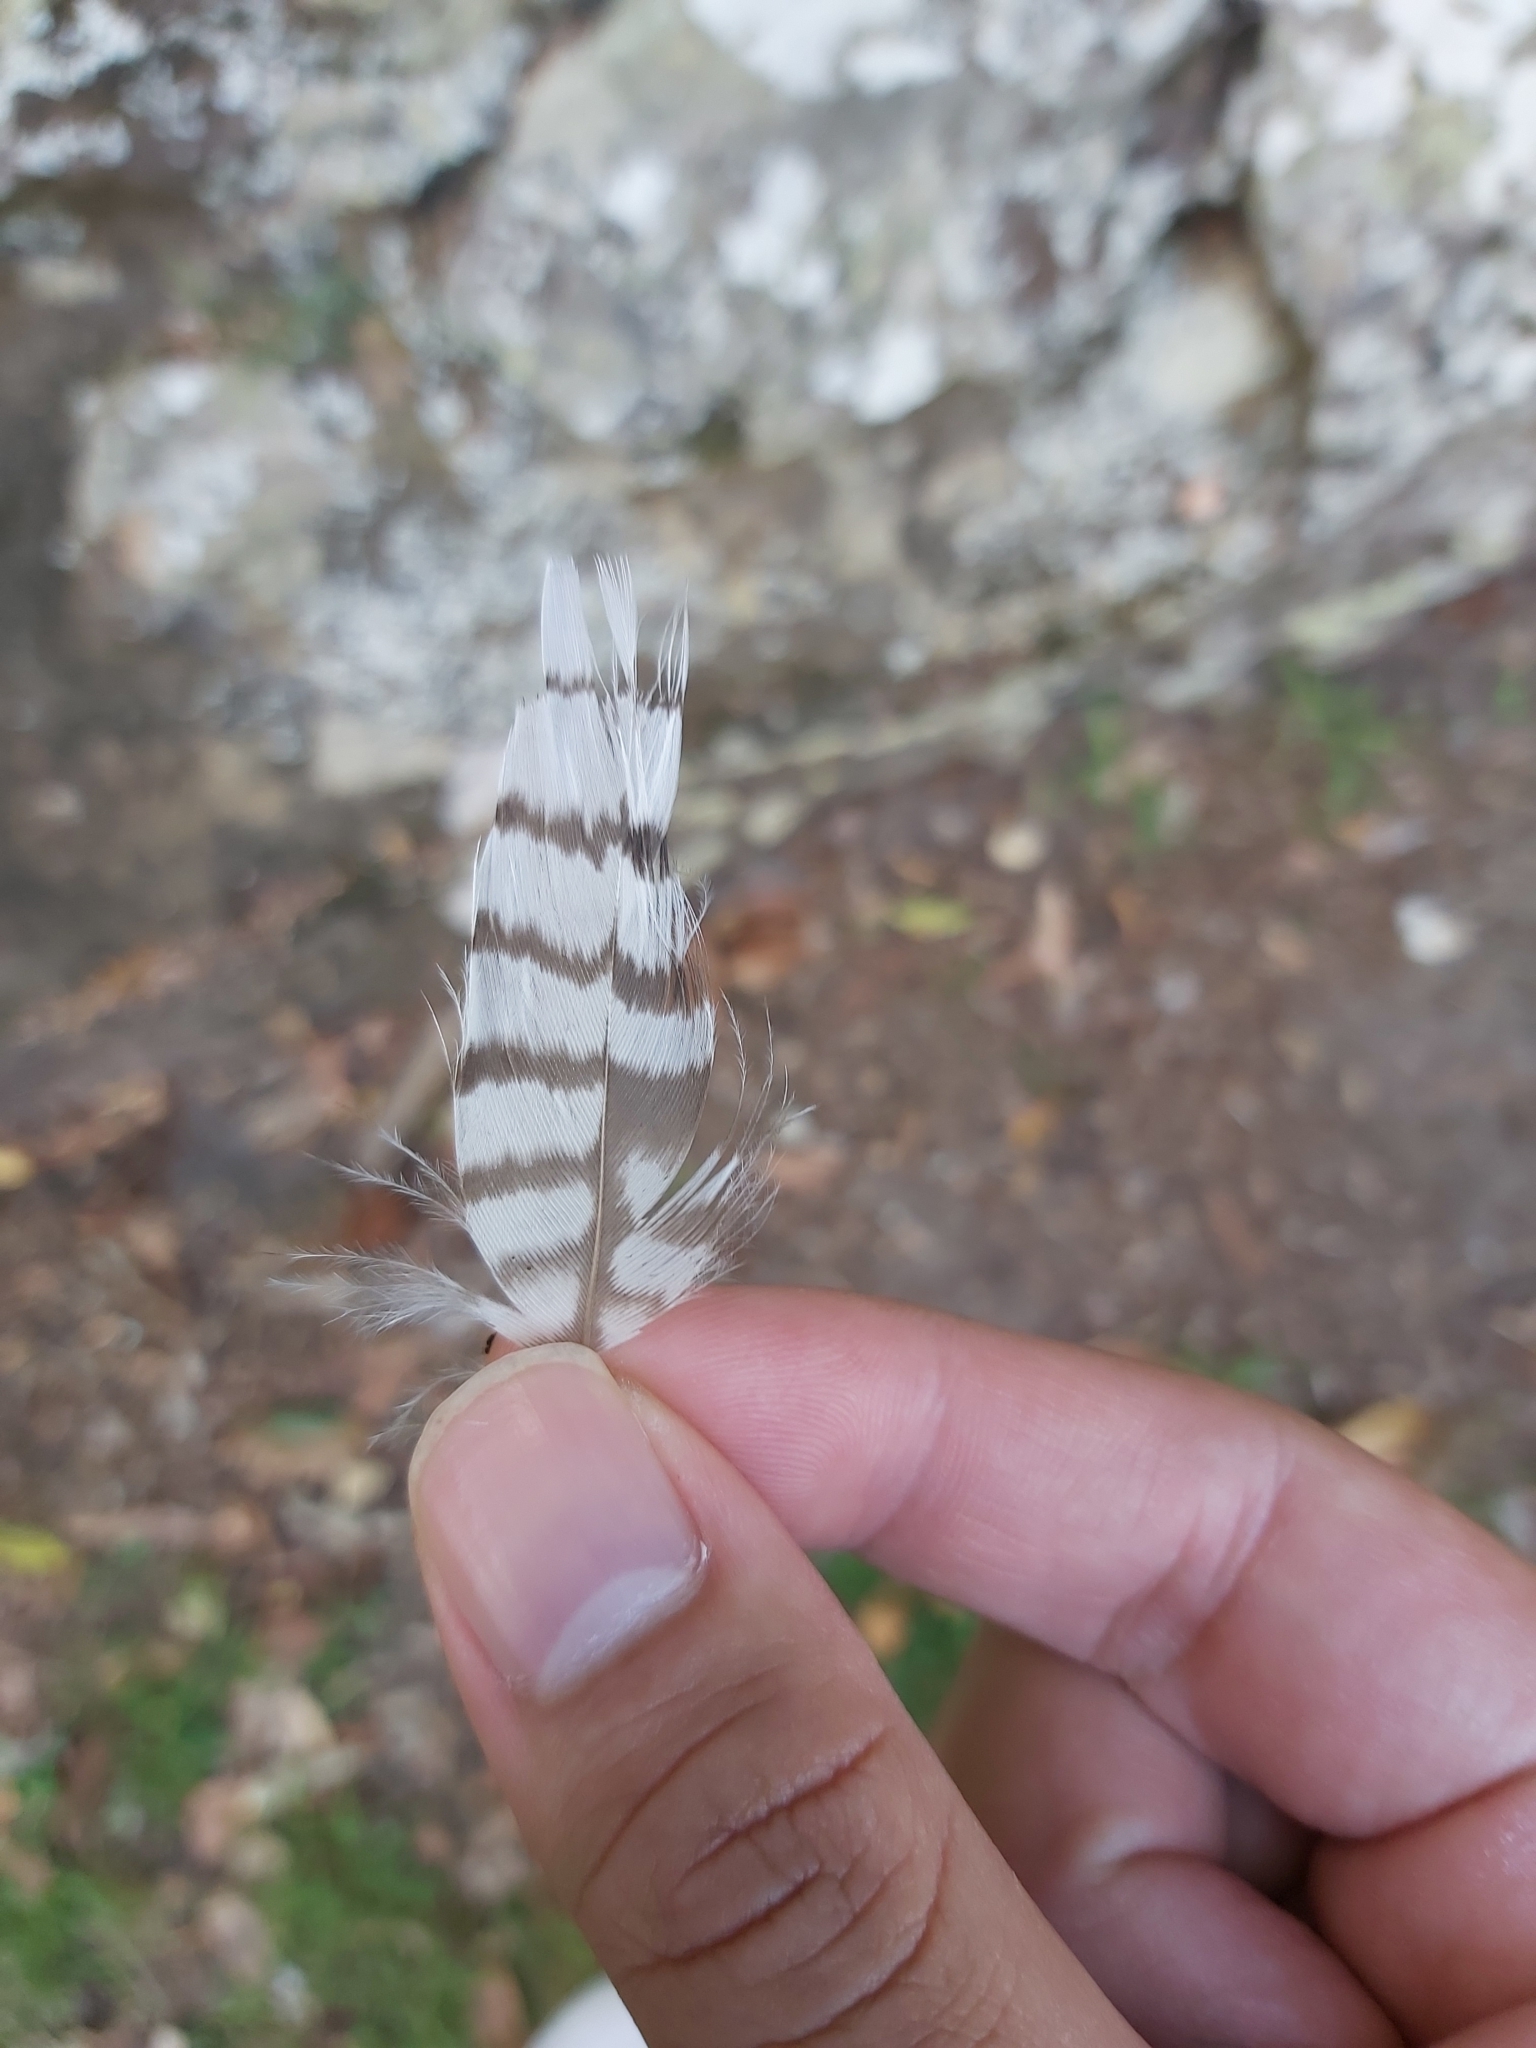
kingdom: Animalia
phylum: Chordata
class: Aves
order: Coraciiformes
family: Alcedinidae
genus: Dacelo
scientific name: Dacelo novaeguineae
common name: Laughing kookaburra
